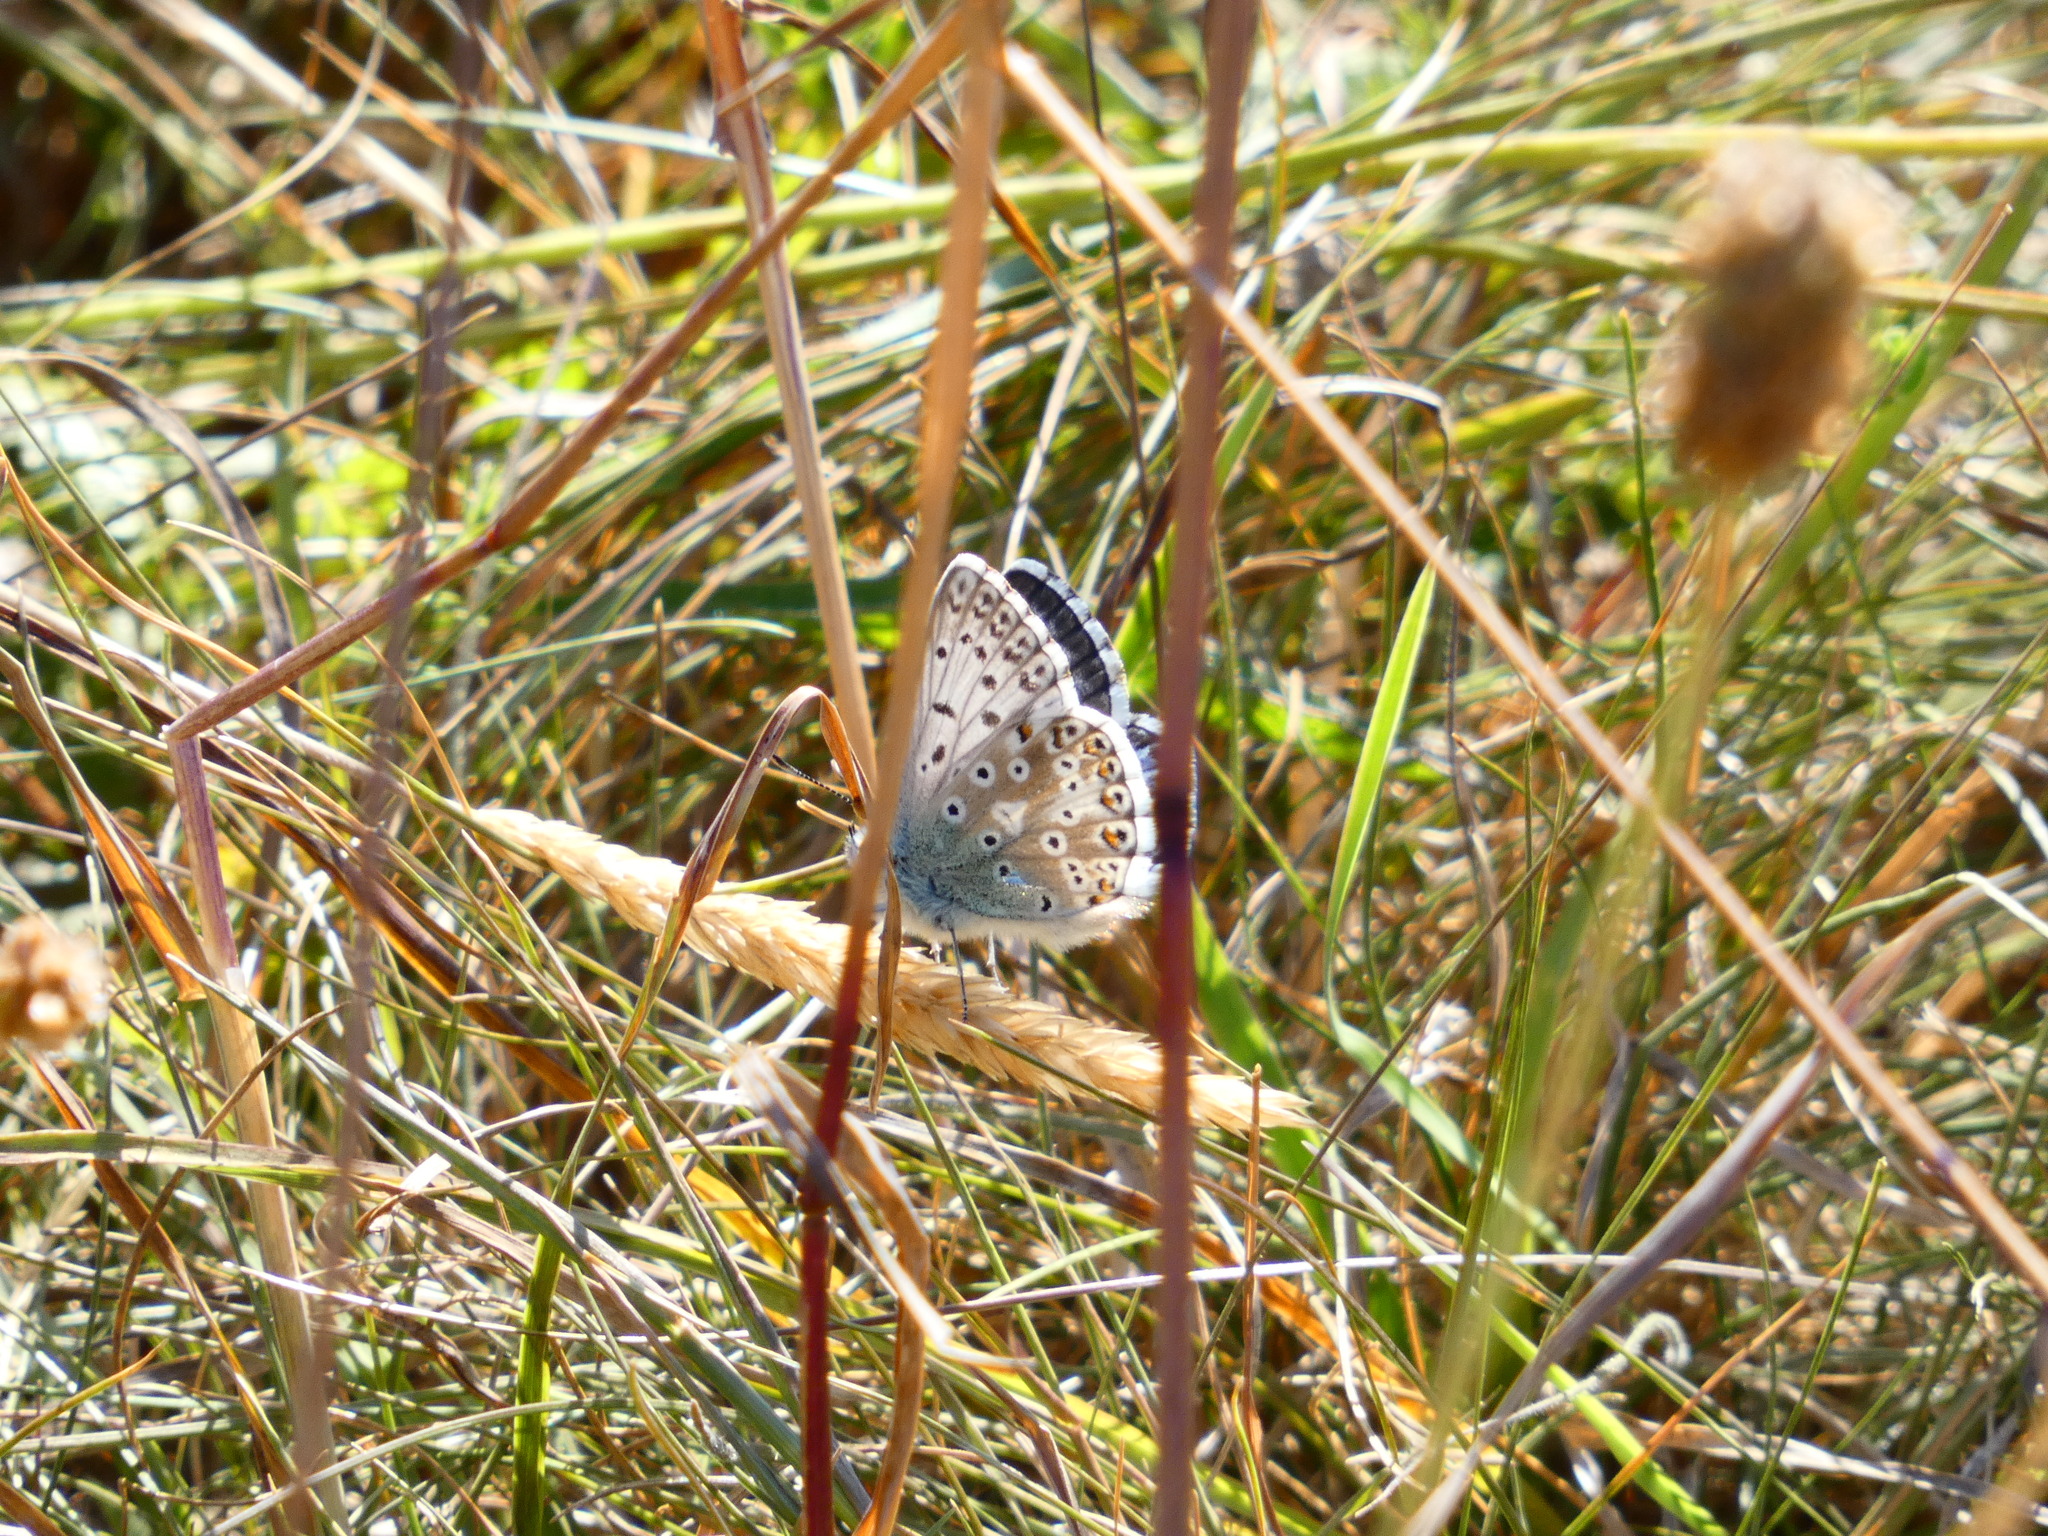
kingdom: Animalia
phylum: Arthropoda
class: Insecta
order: Lepidoptera
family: Lycaenidae
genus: Lysandra
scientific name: Lysandra coridon
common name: Chalkhill blue
